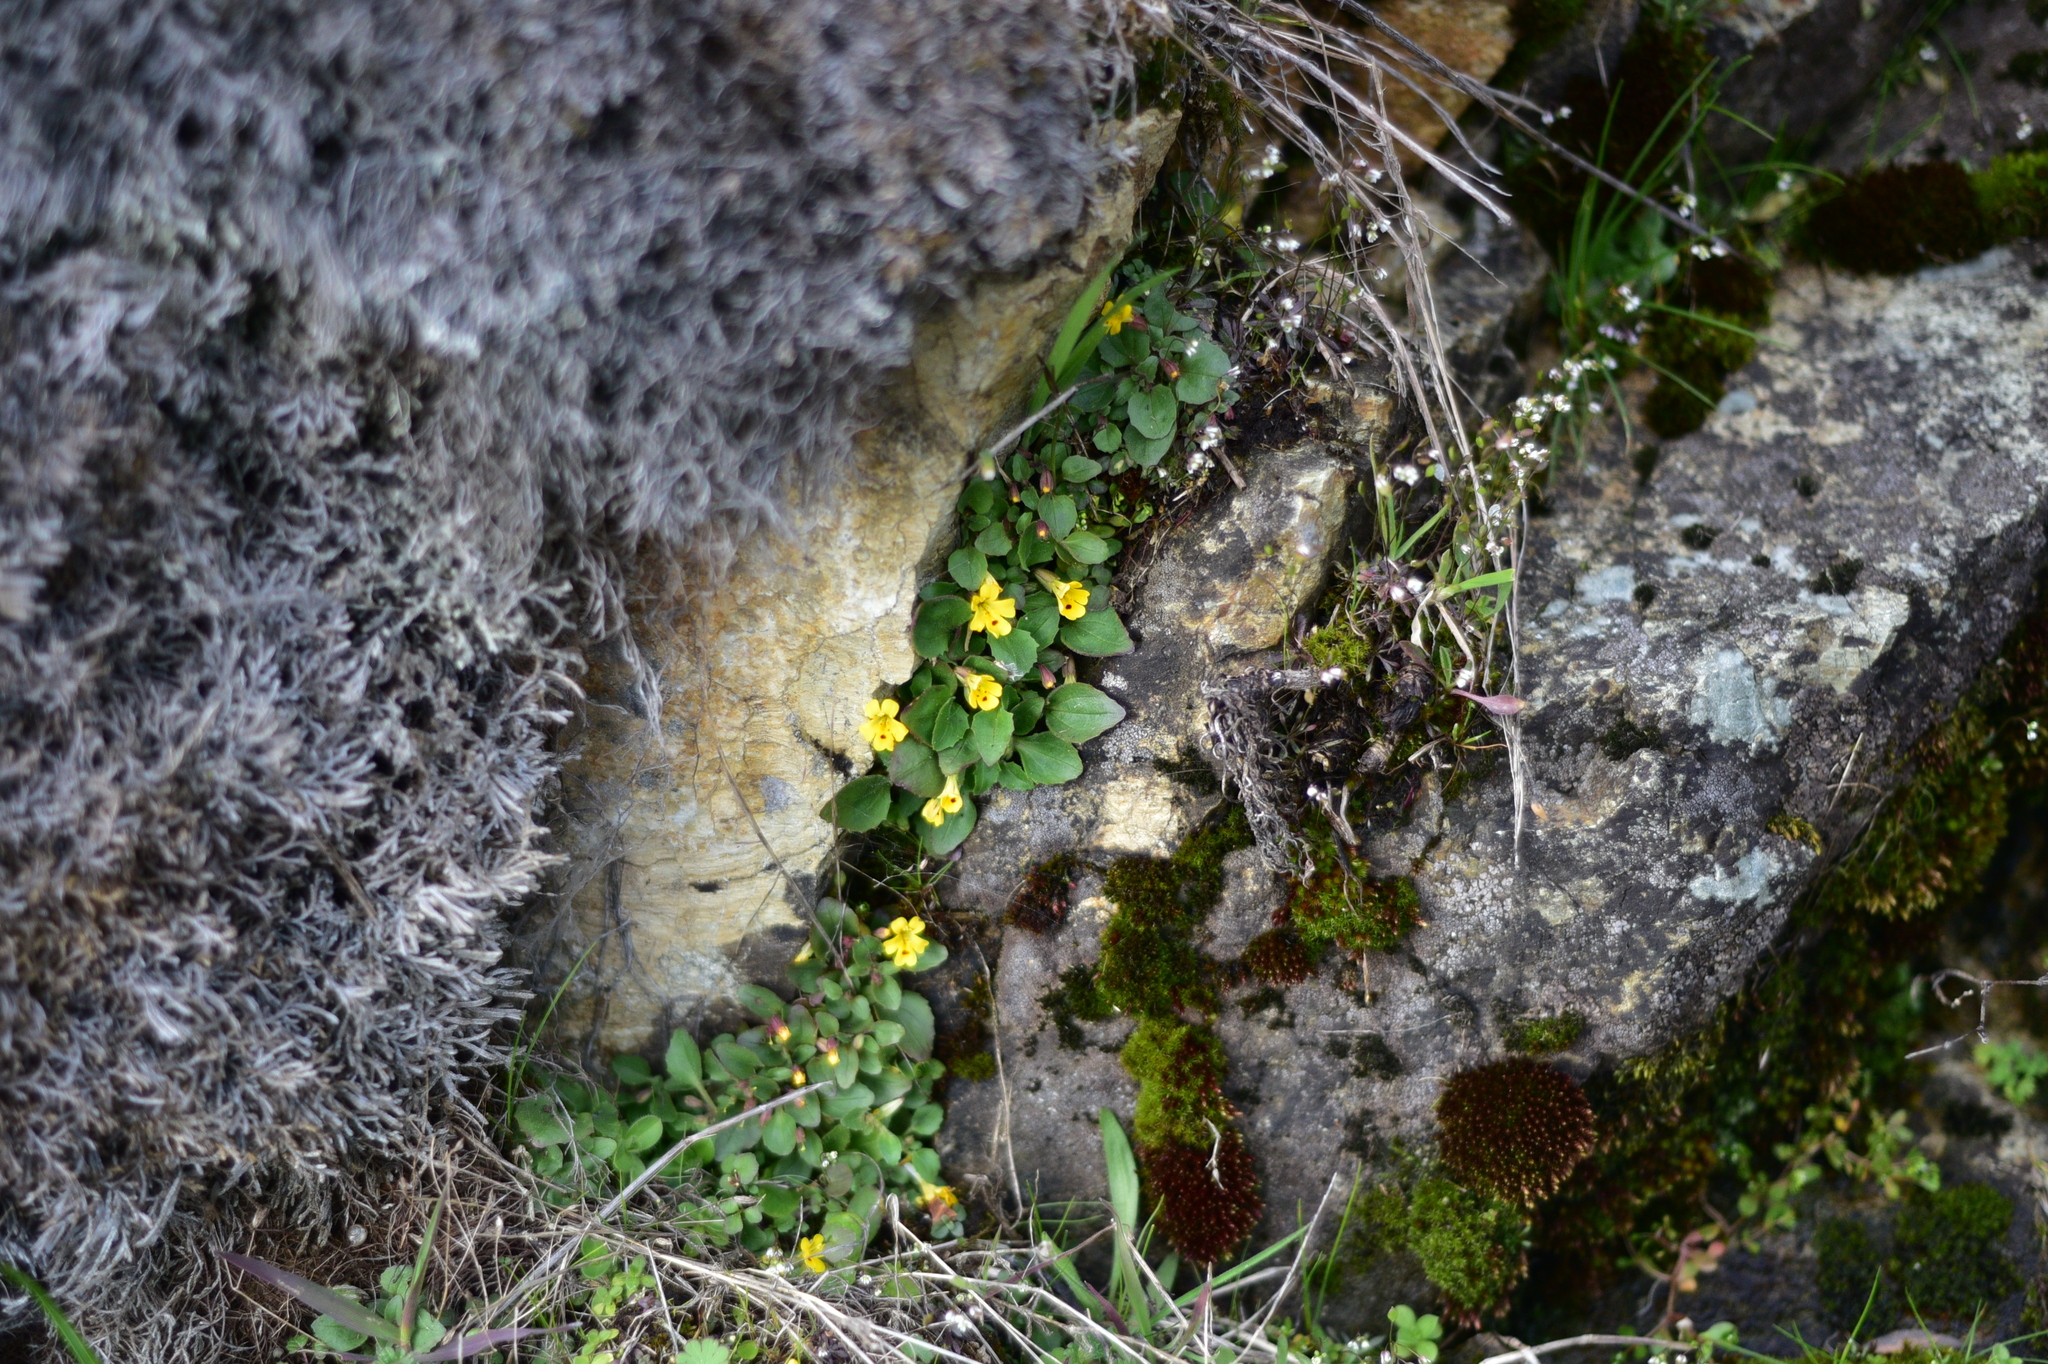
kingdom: Plantae
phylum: Tracheophyta
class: Magnoliopsida
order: Lamiales
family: Phrymaceae
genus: Erythranthe
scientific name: Erythranthe alsinoides
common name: Chickweed monkeyflower
